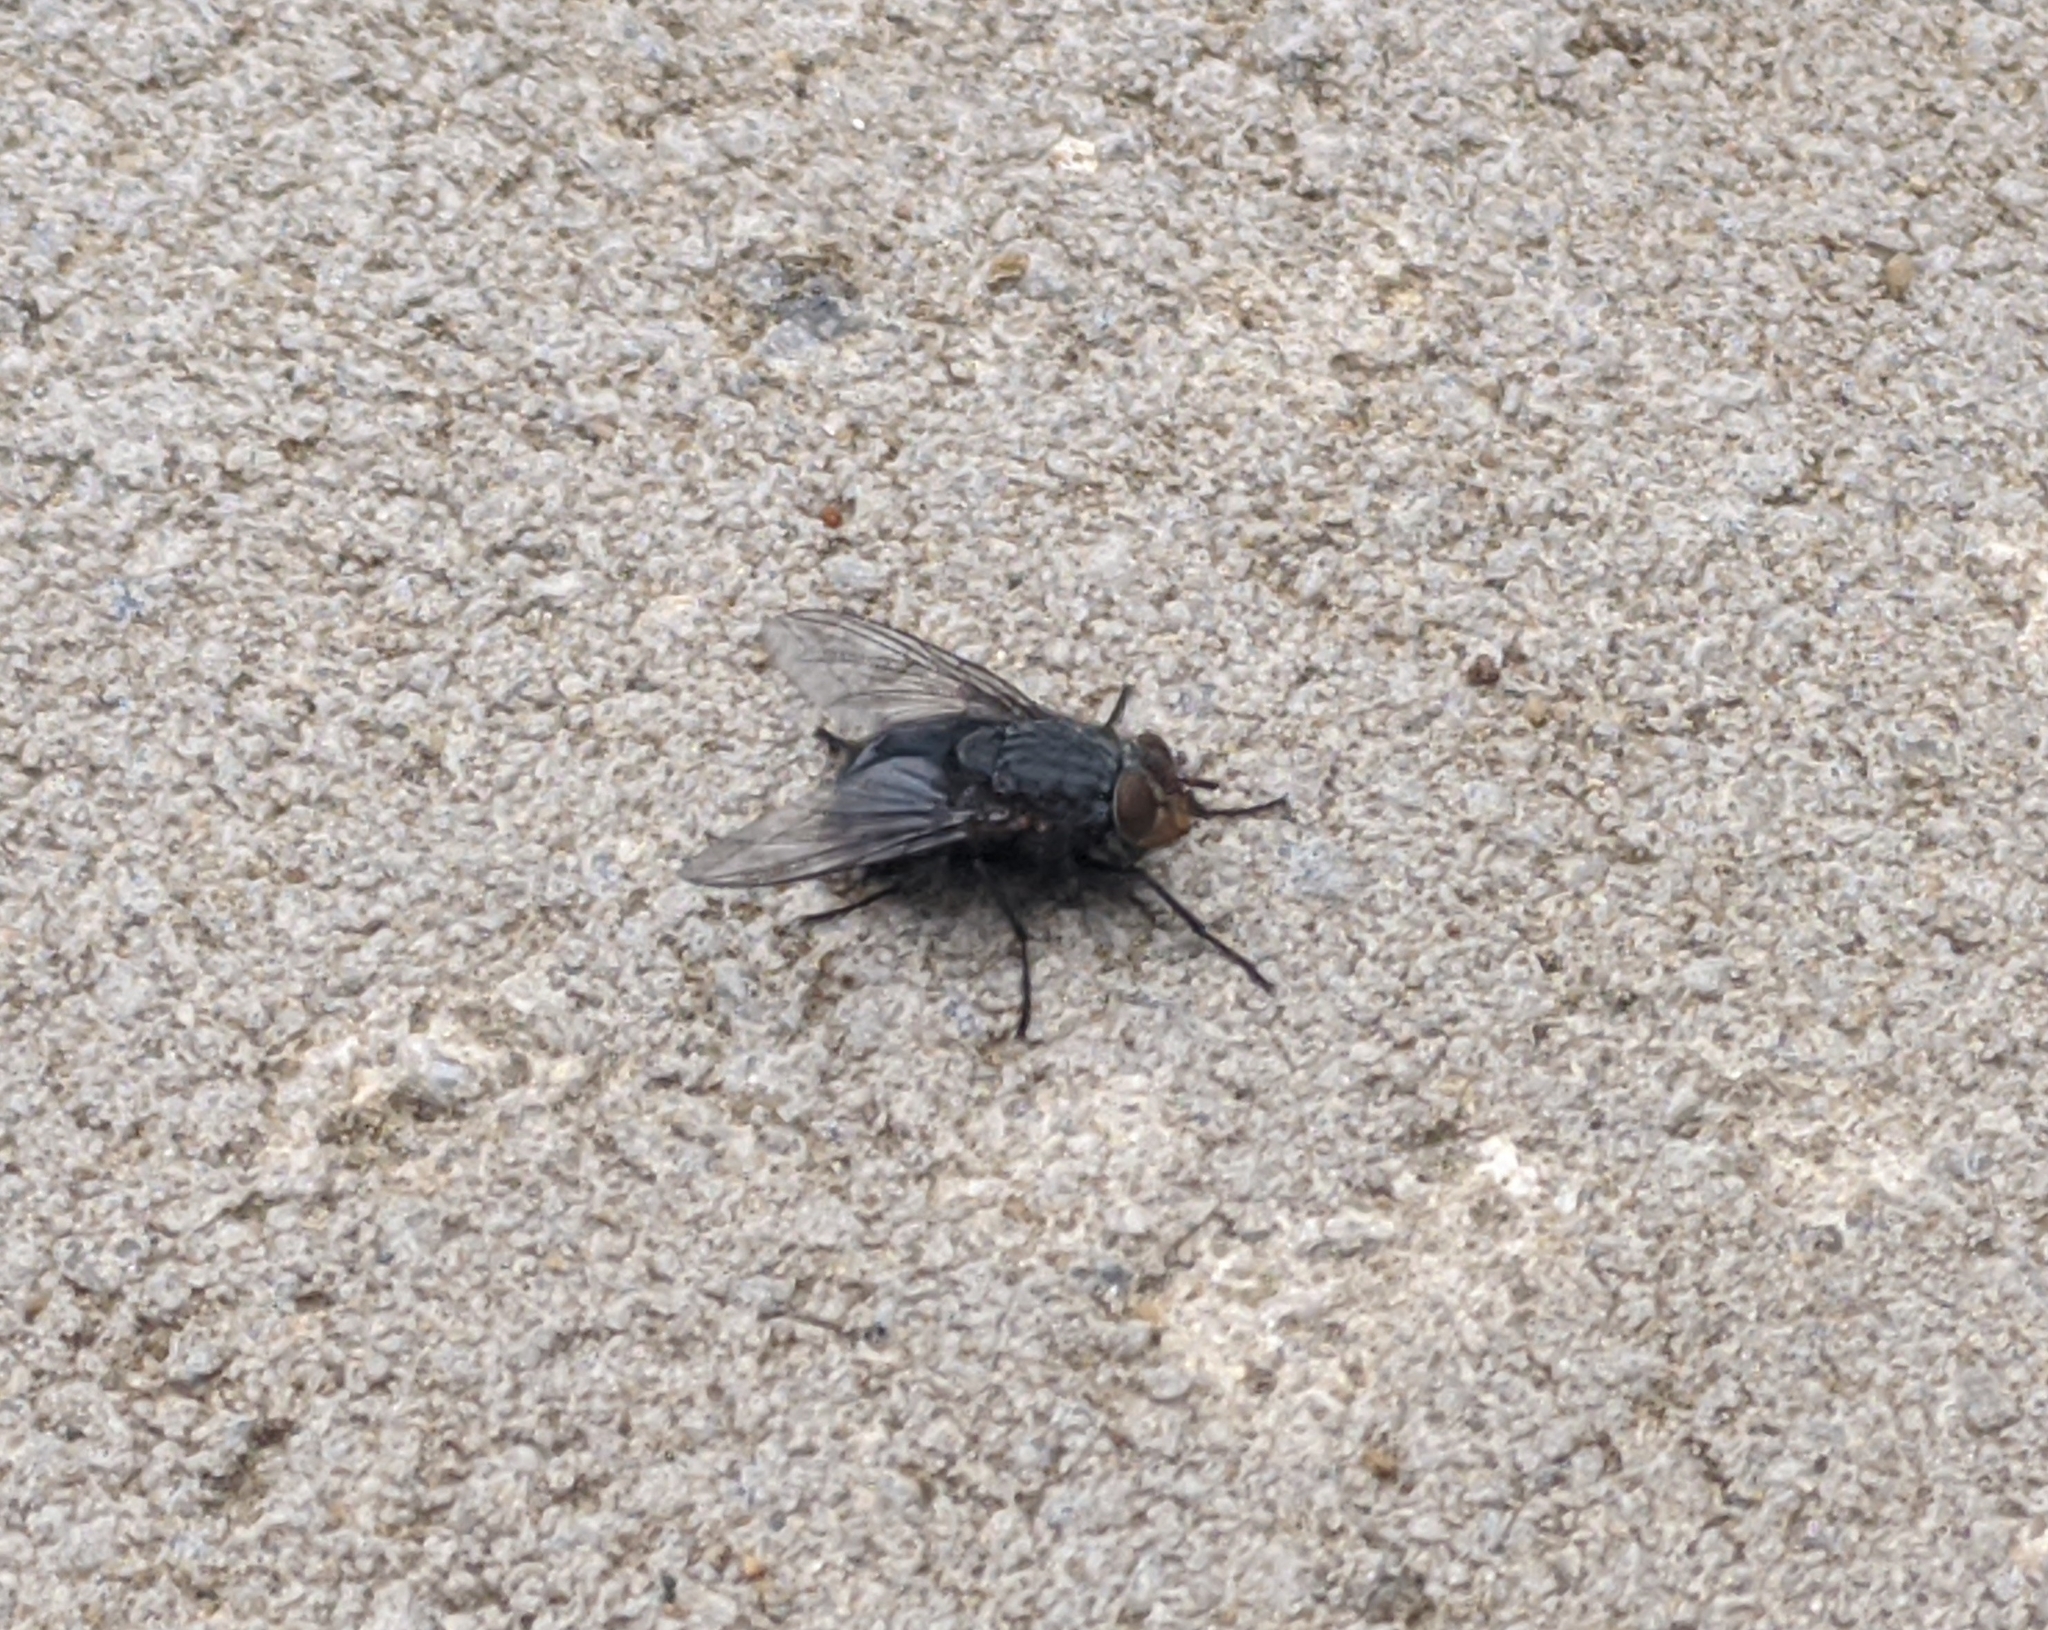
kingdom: Animalia
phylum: Arthropoda
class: Insecta
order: Diptera
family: Calliphoridae
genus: Calliphora
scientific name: Calliphora vicina
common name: Common blow flie
